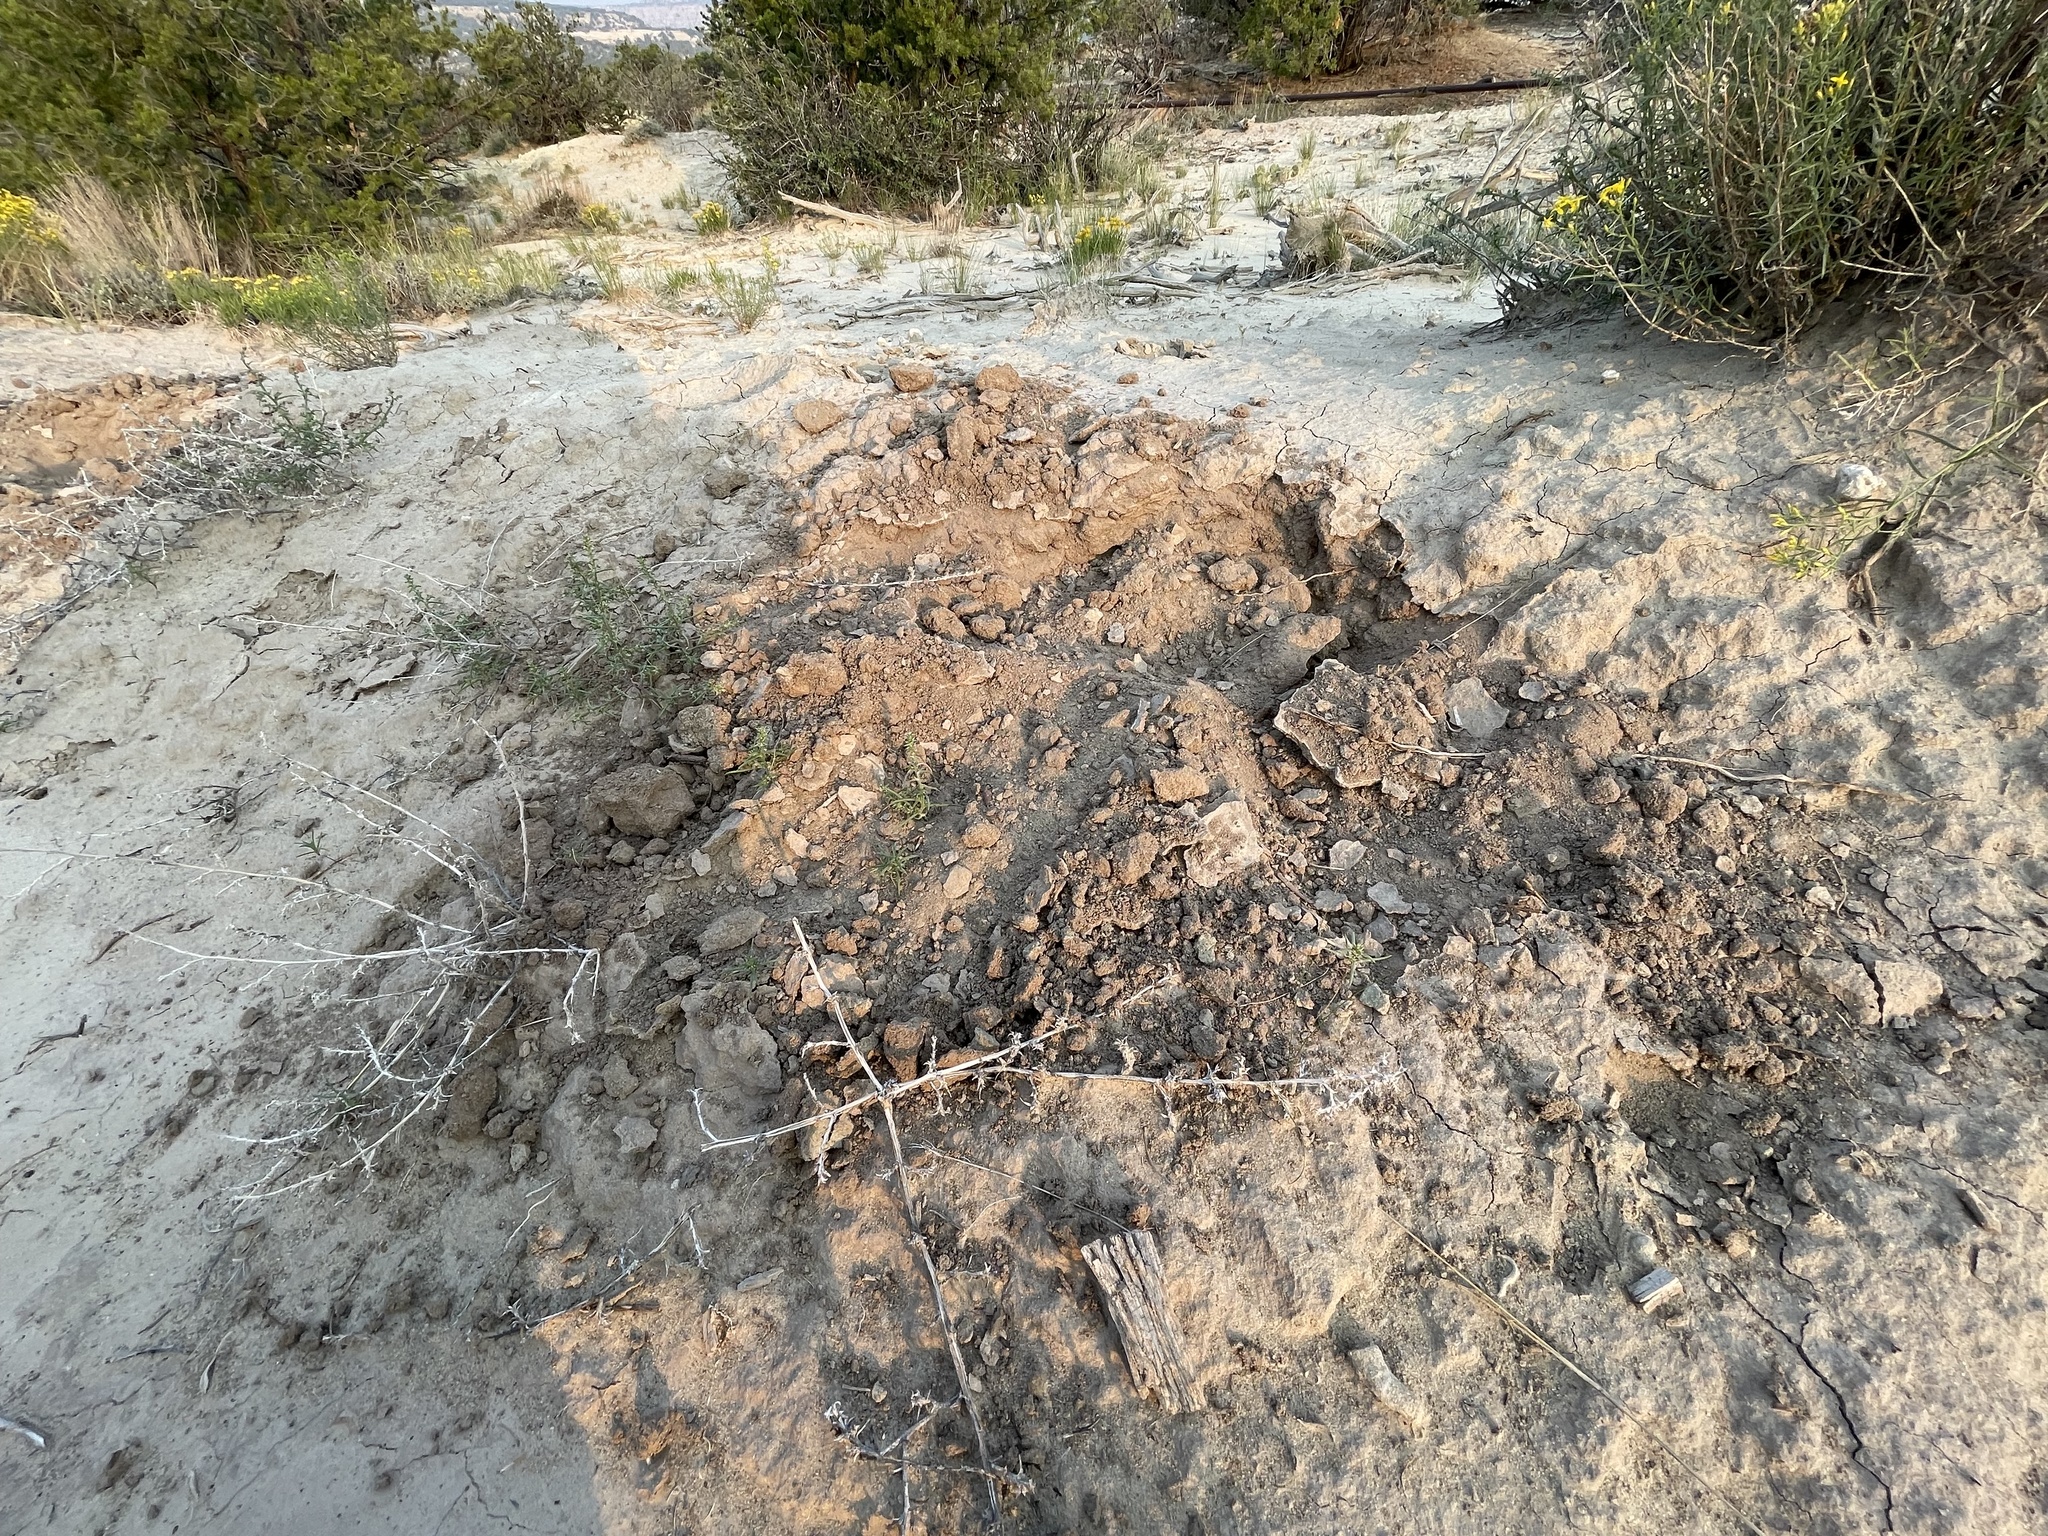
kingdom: Animalia
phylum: Chordata
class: Mammalia
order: Artiodactyla
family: Cervidae
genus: Odocoileus
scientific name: Odocoileus hemionus
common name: Mule deer
